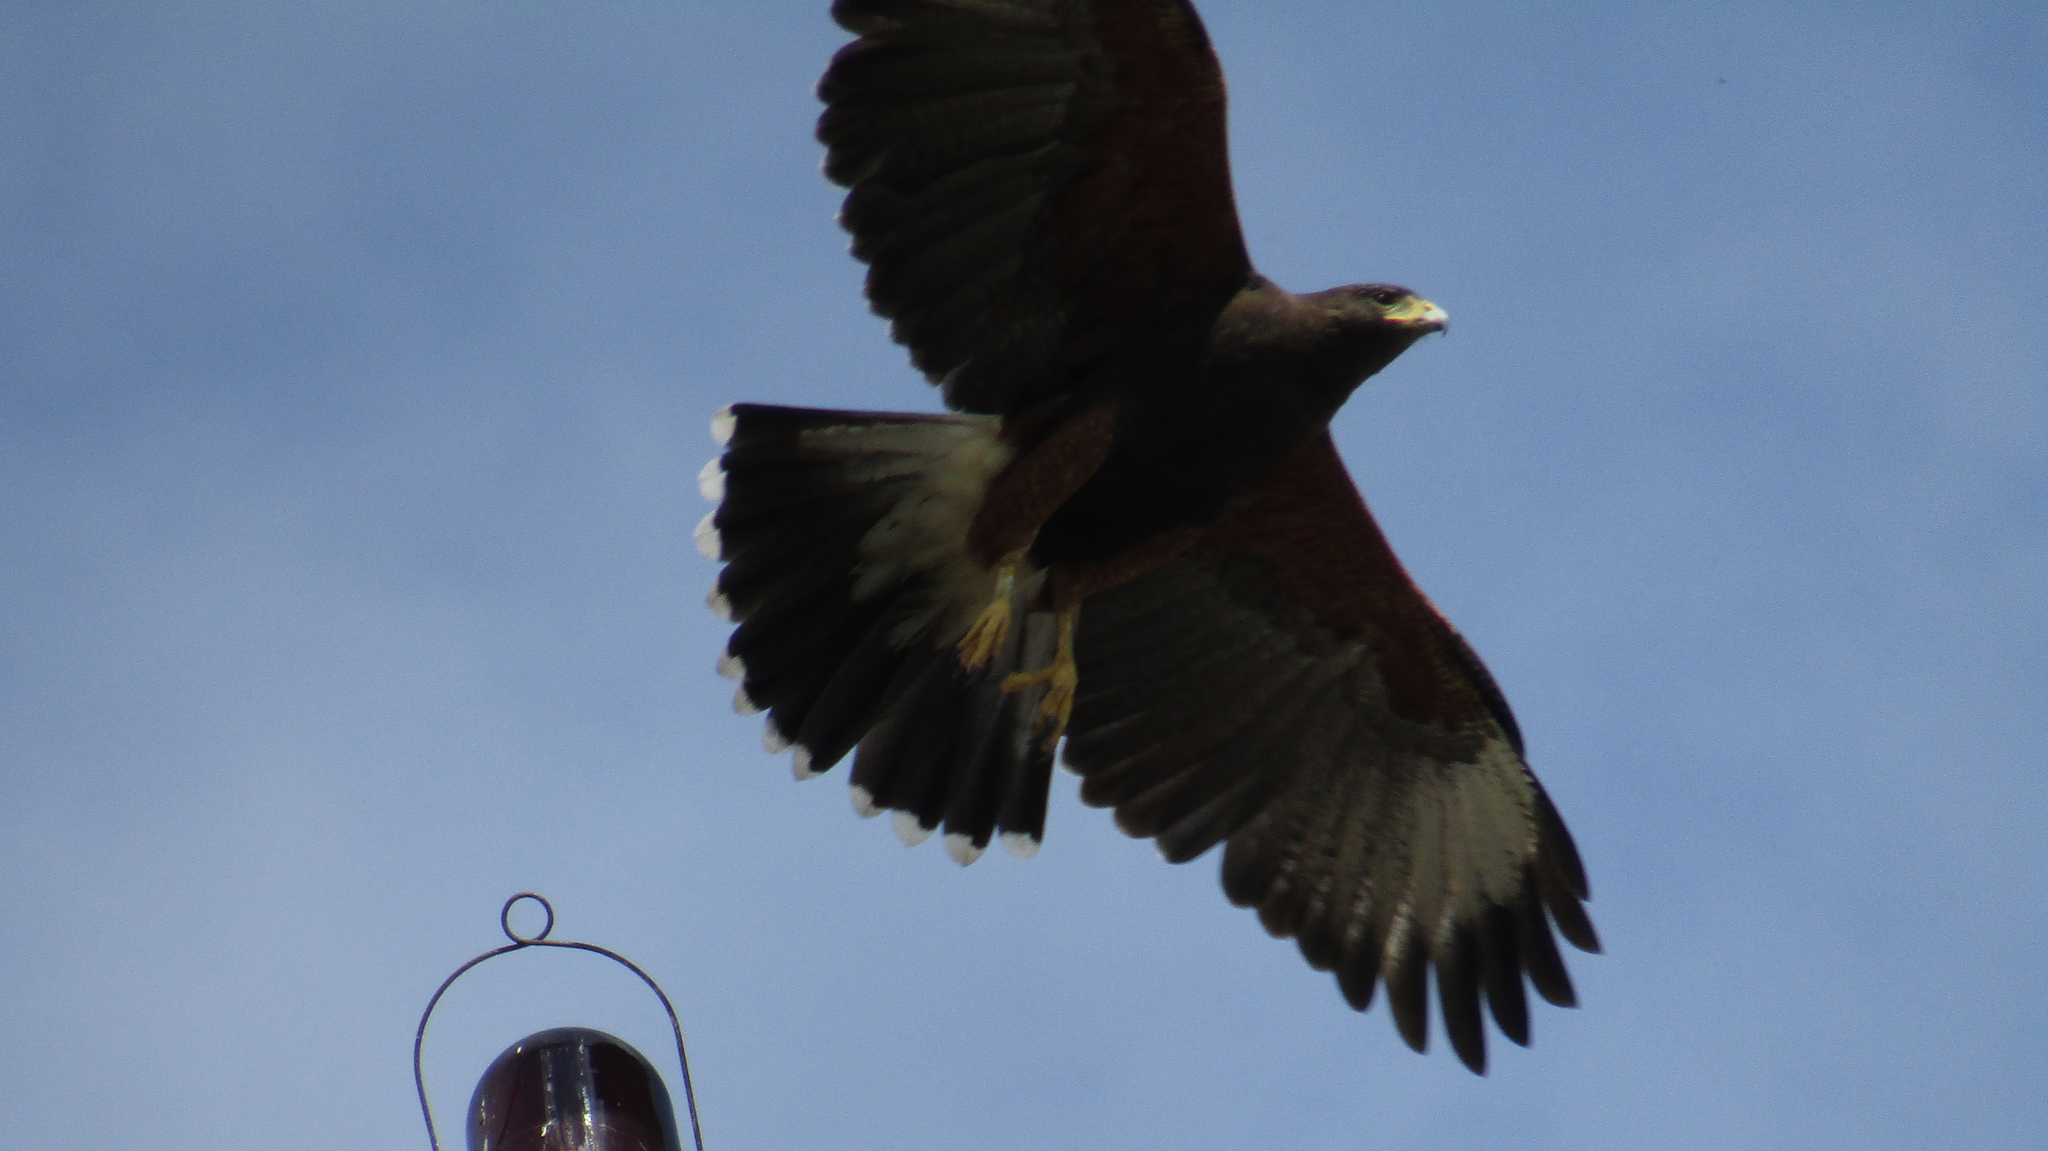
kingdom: Animalia
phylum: Chordata
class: Aves
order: Accipitriformes
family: Accipitridae
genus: Parabuteo
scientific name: Parabuteo unicinctus
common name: Harris's hawk
